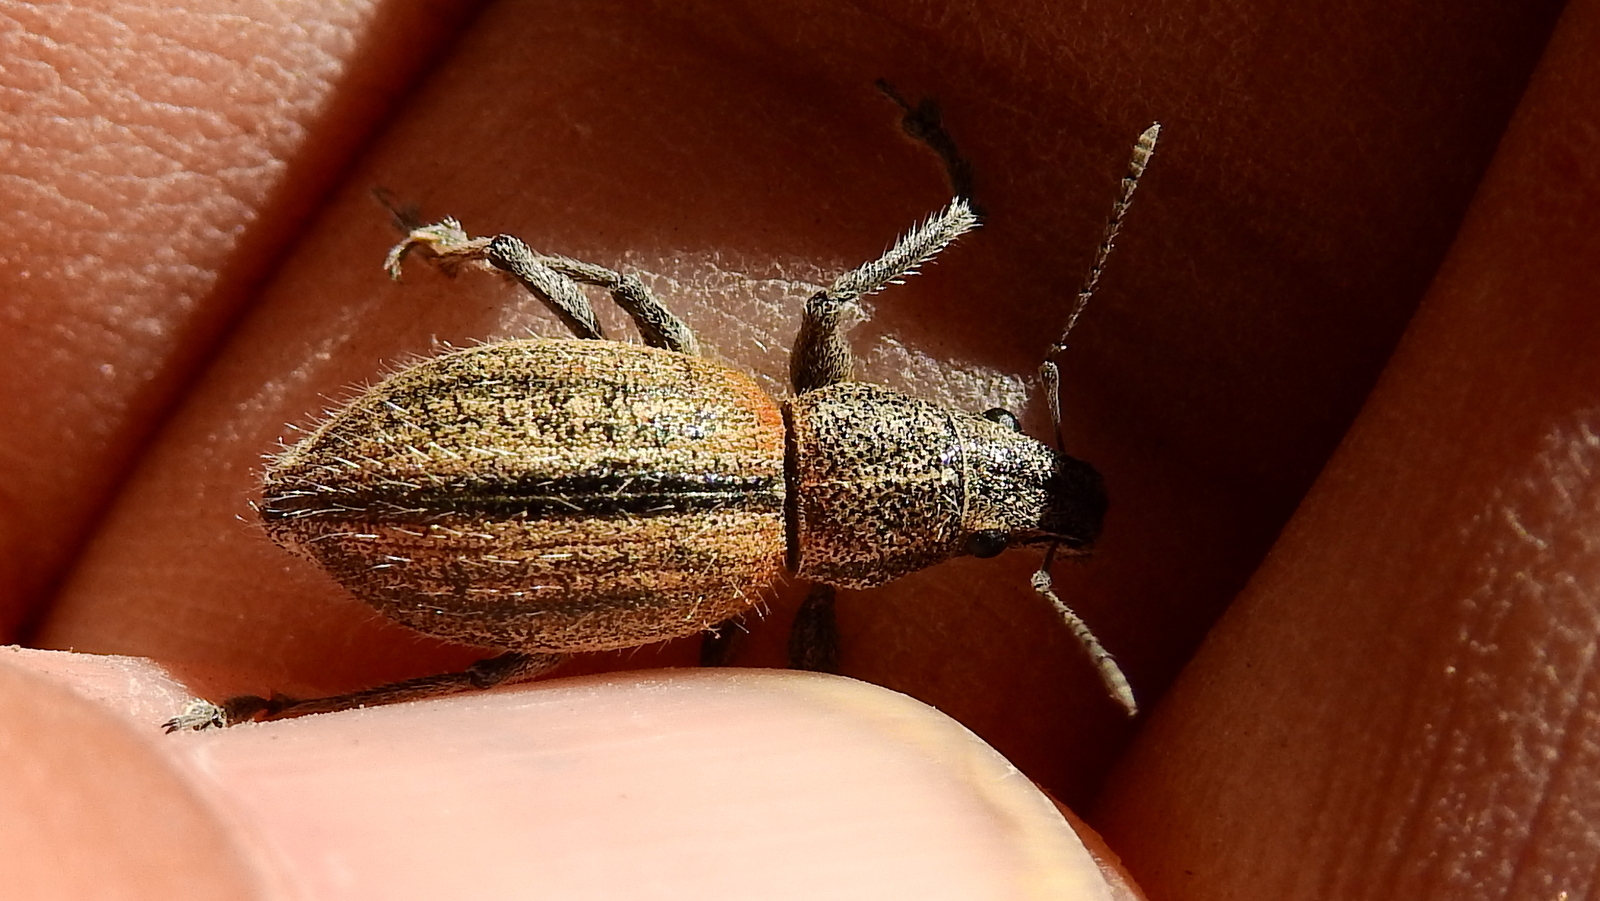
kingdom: Animalia
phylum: Arthropoda
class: Insecta
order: Coleoptera
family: Curculionidae
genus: Naupactus
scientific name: Naupactus verecundus
